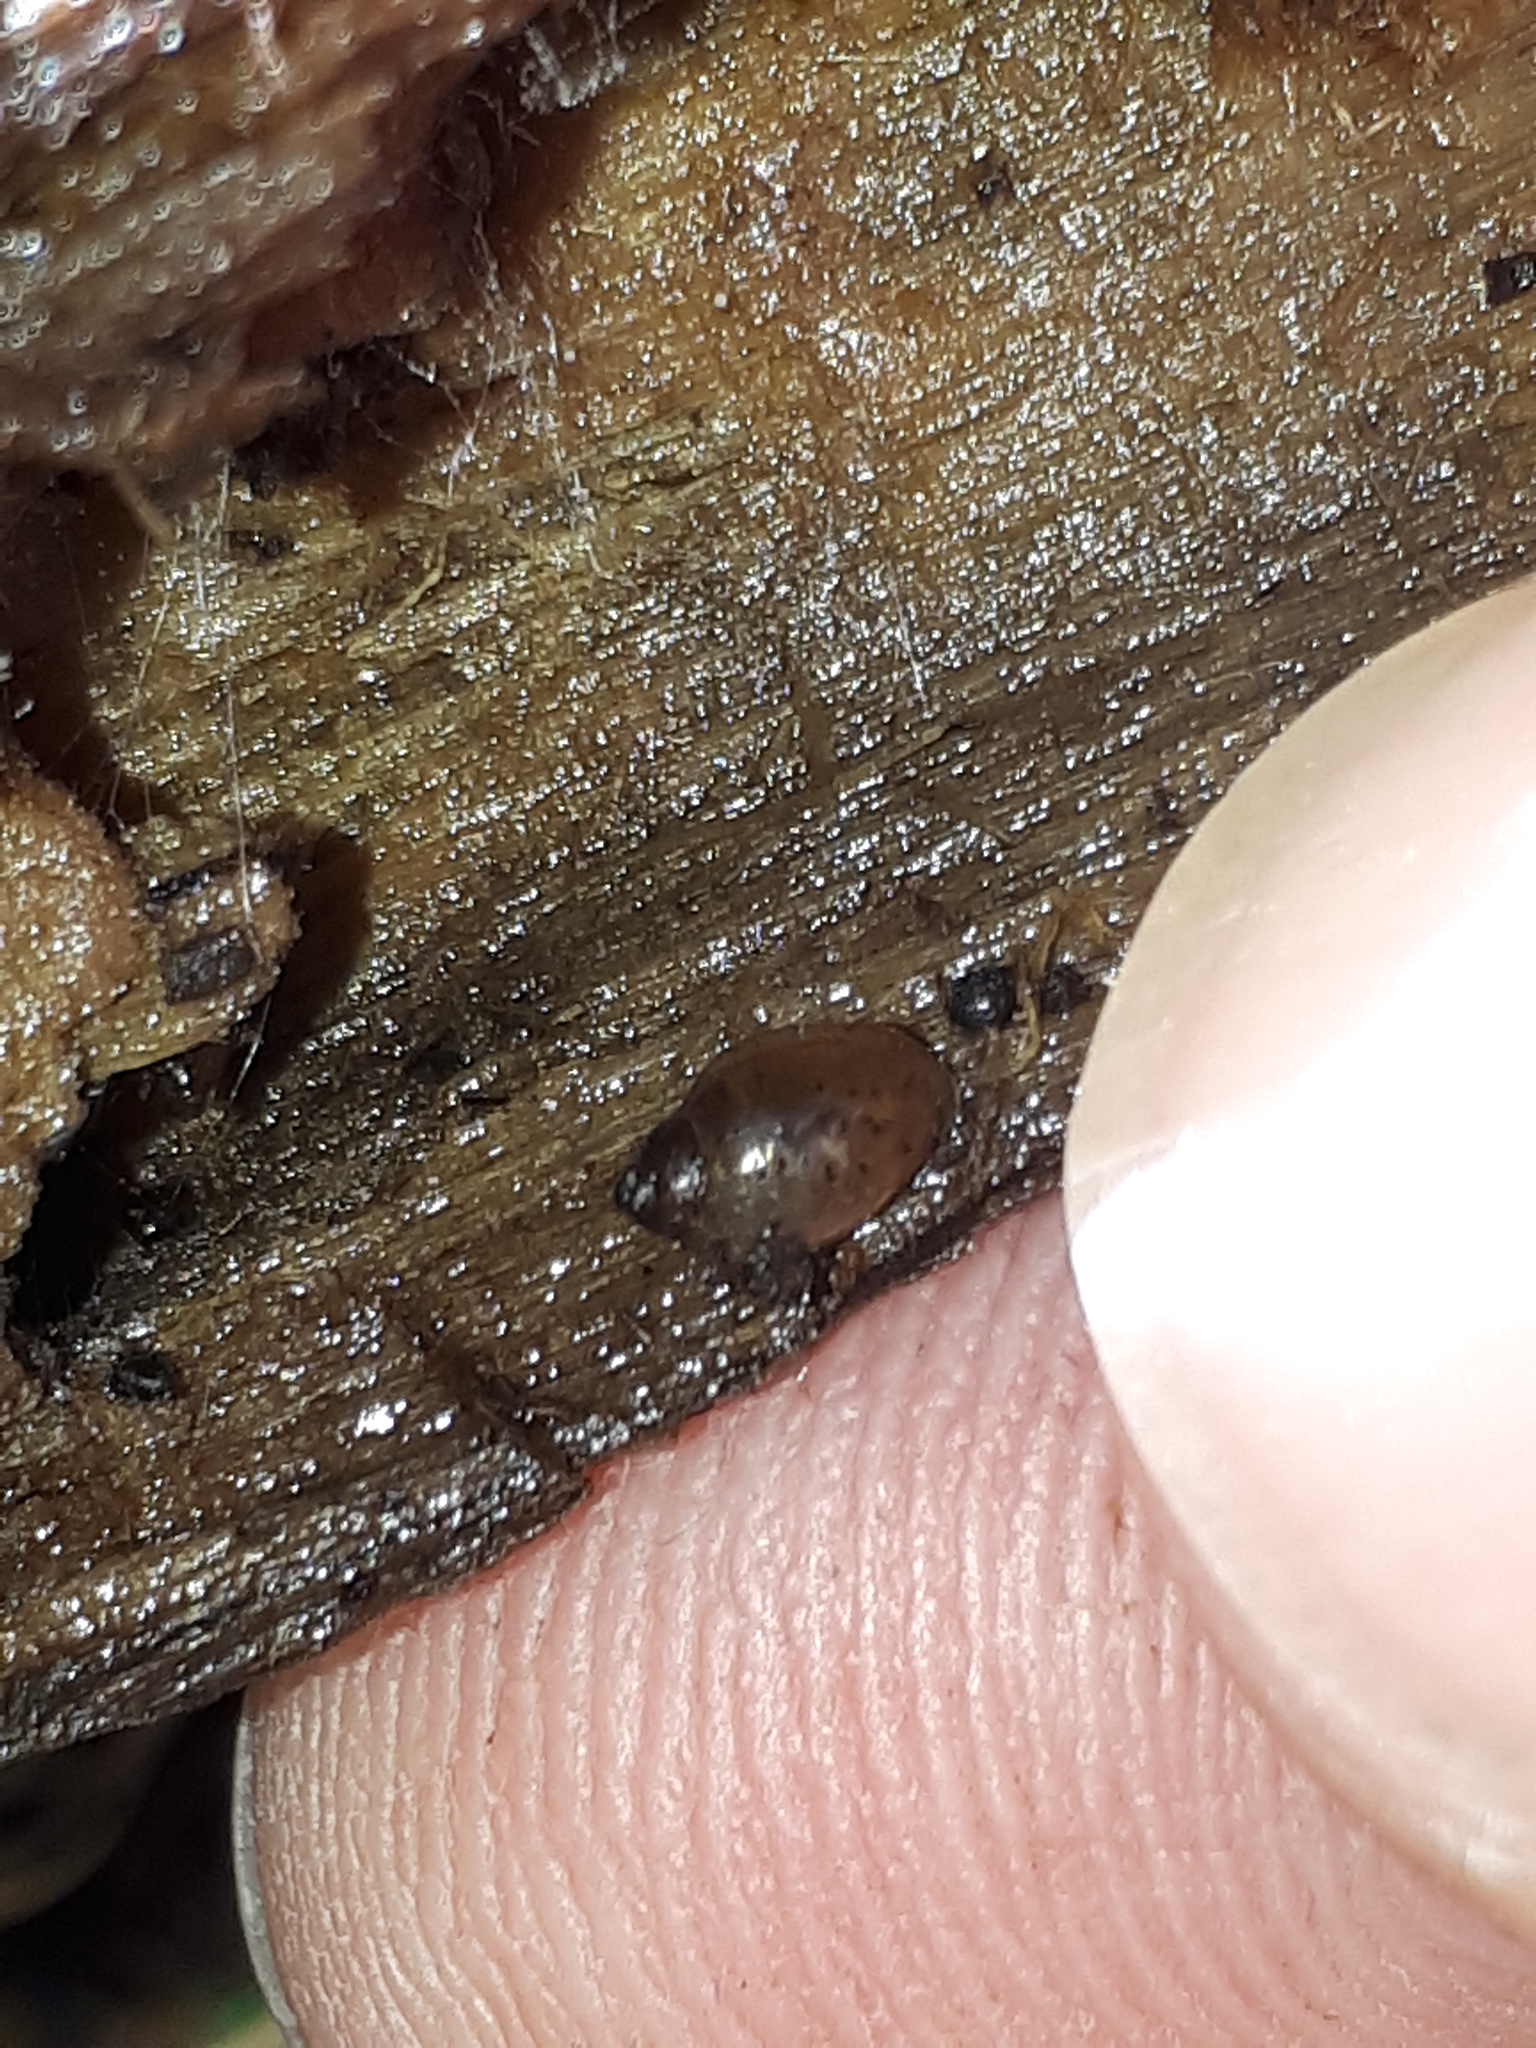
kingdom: Animalia
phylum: Mollusca
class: Gastropoda
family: Physidae
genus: Physella
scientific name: Physella acuta
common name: European physa
